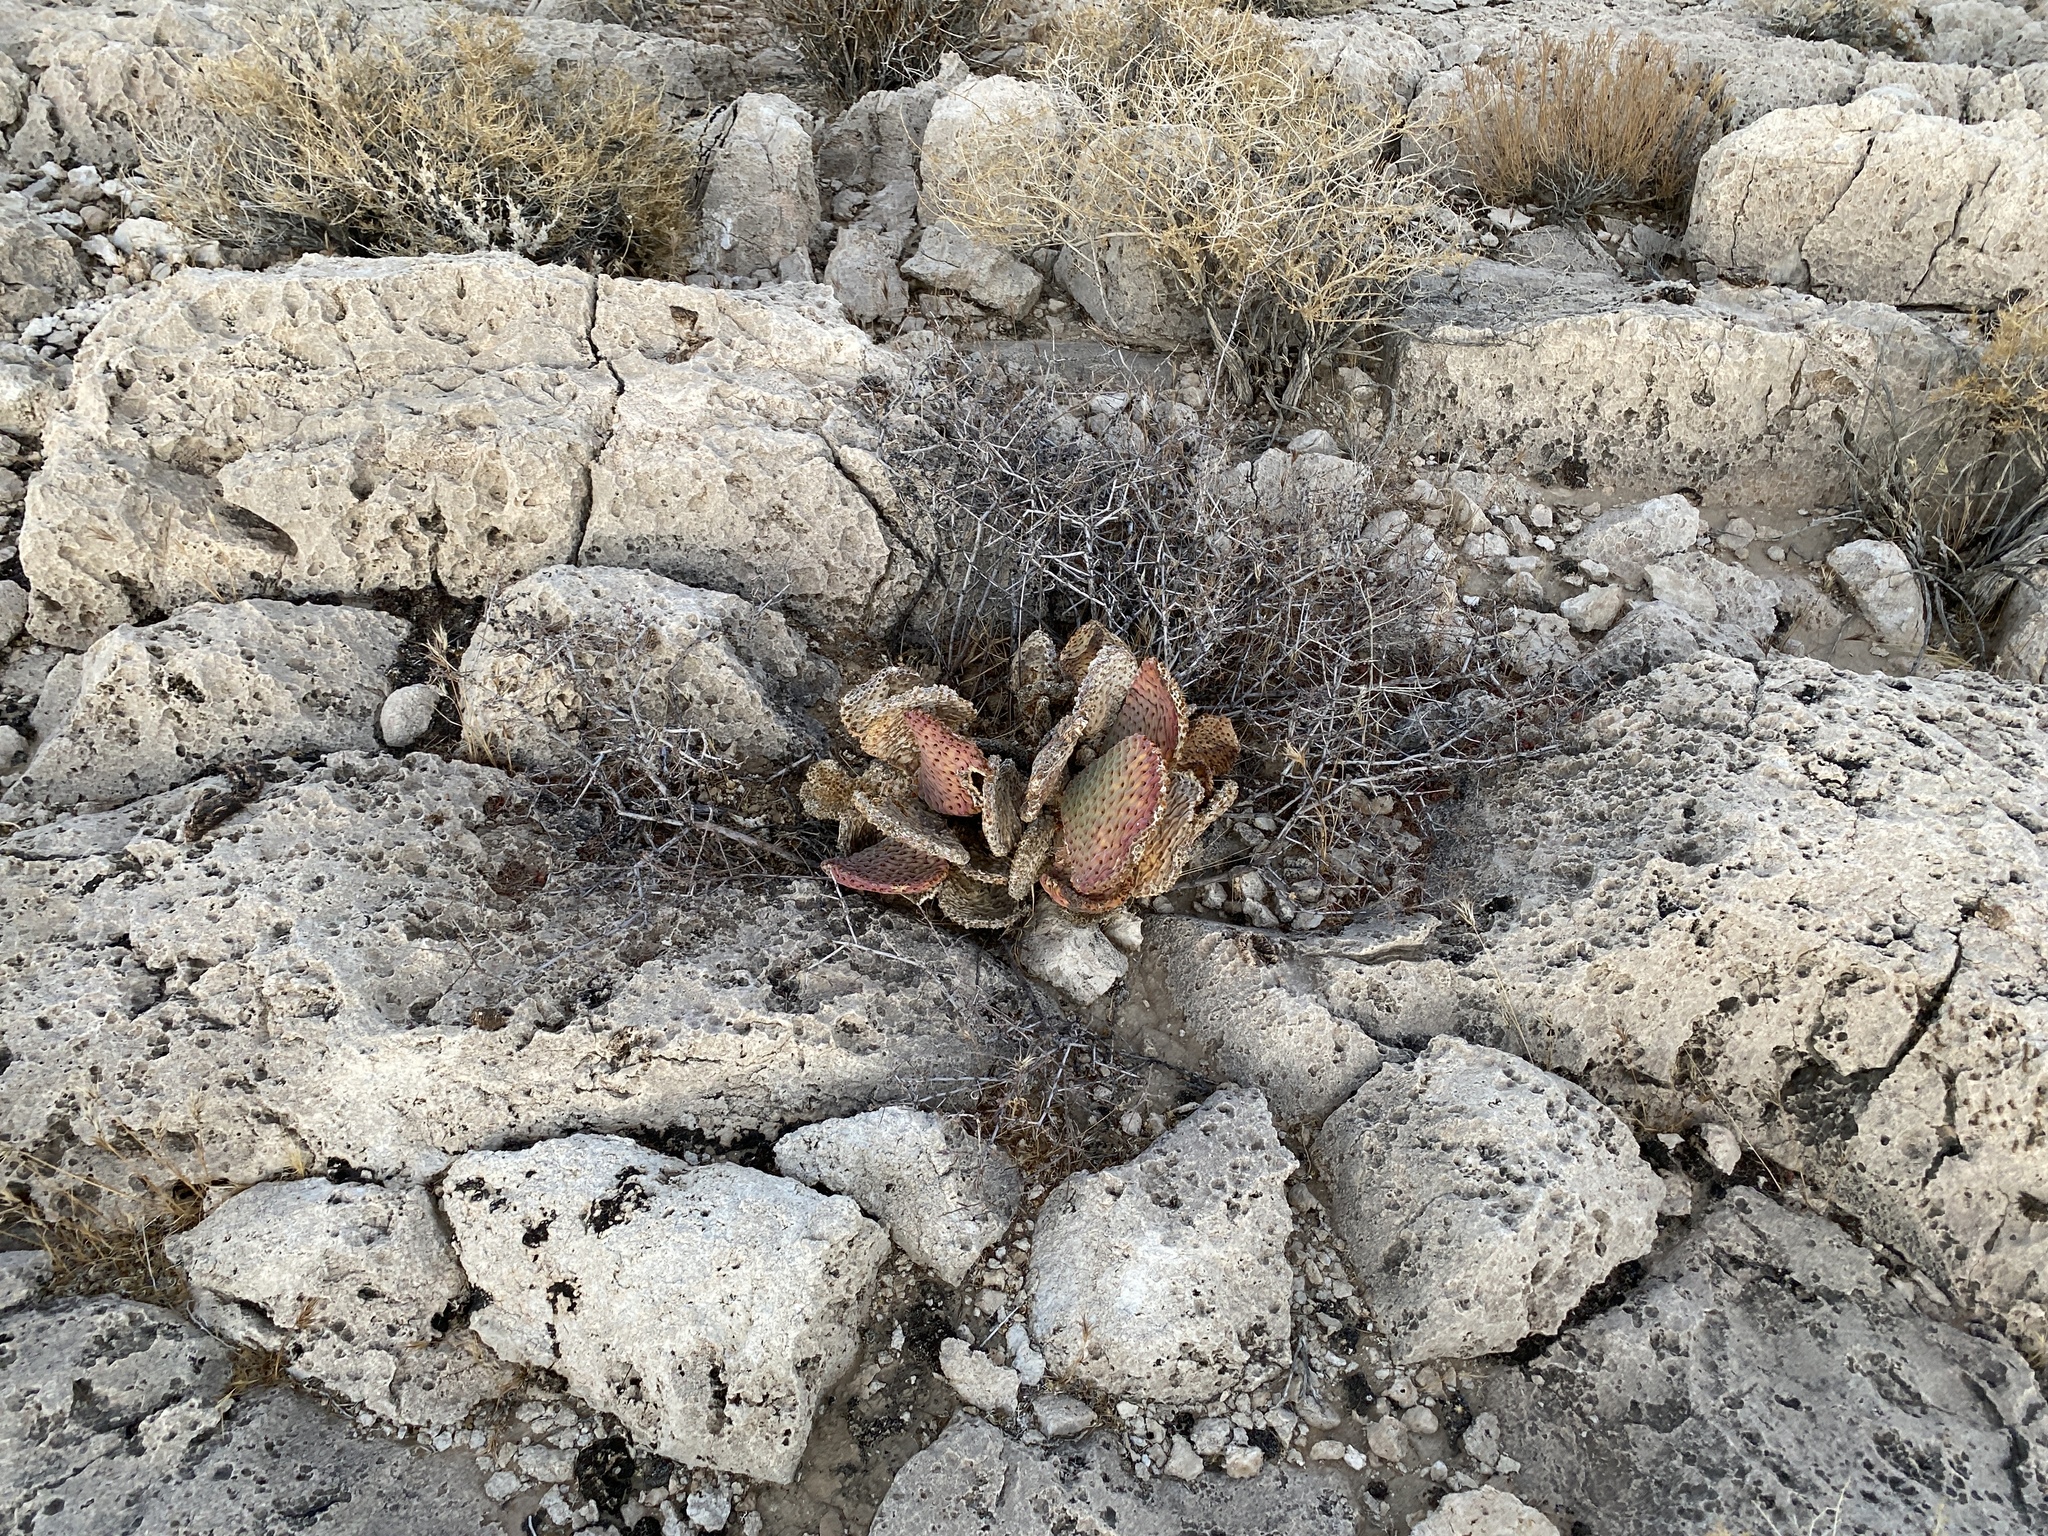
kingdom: Plantae
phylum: Tracheophyta
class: Magnoliopsida
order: Caryophyllales
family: Cactaceae
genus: Opuntia
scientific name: Opuntia basilaris
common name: Beavertail prickly-pear
